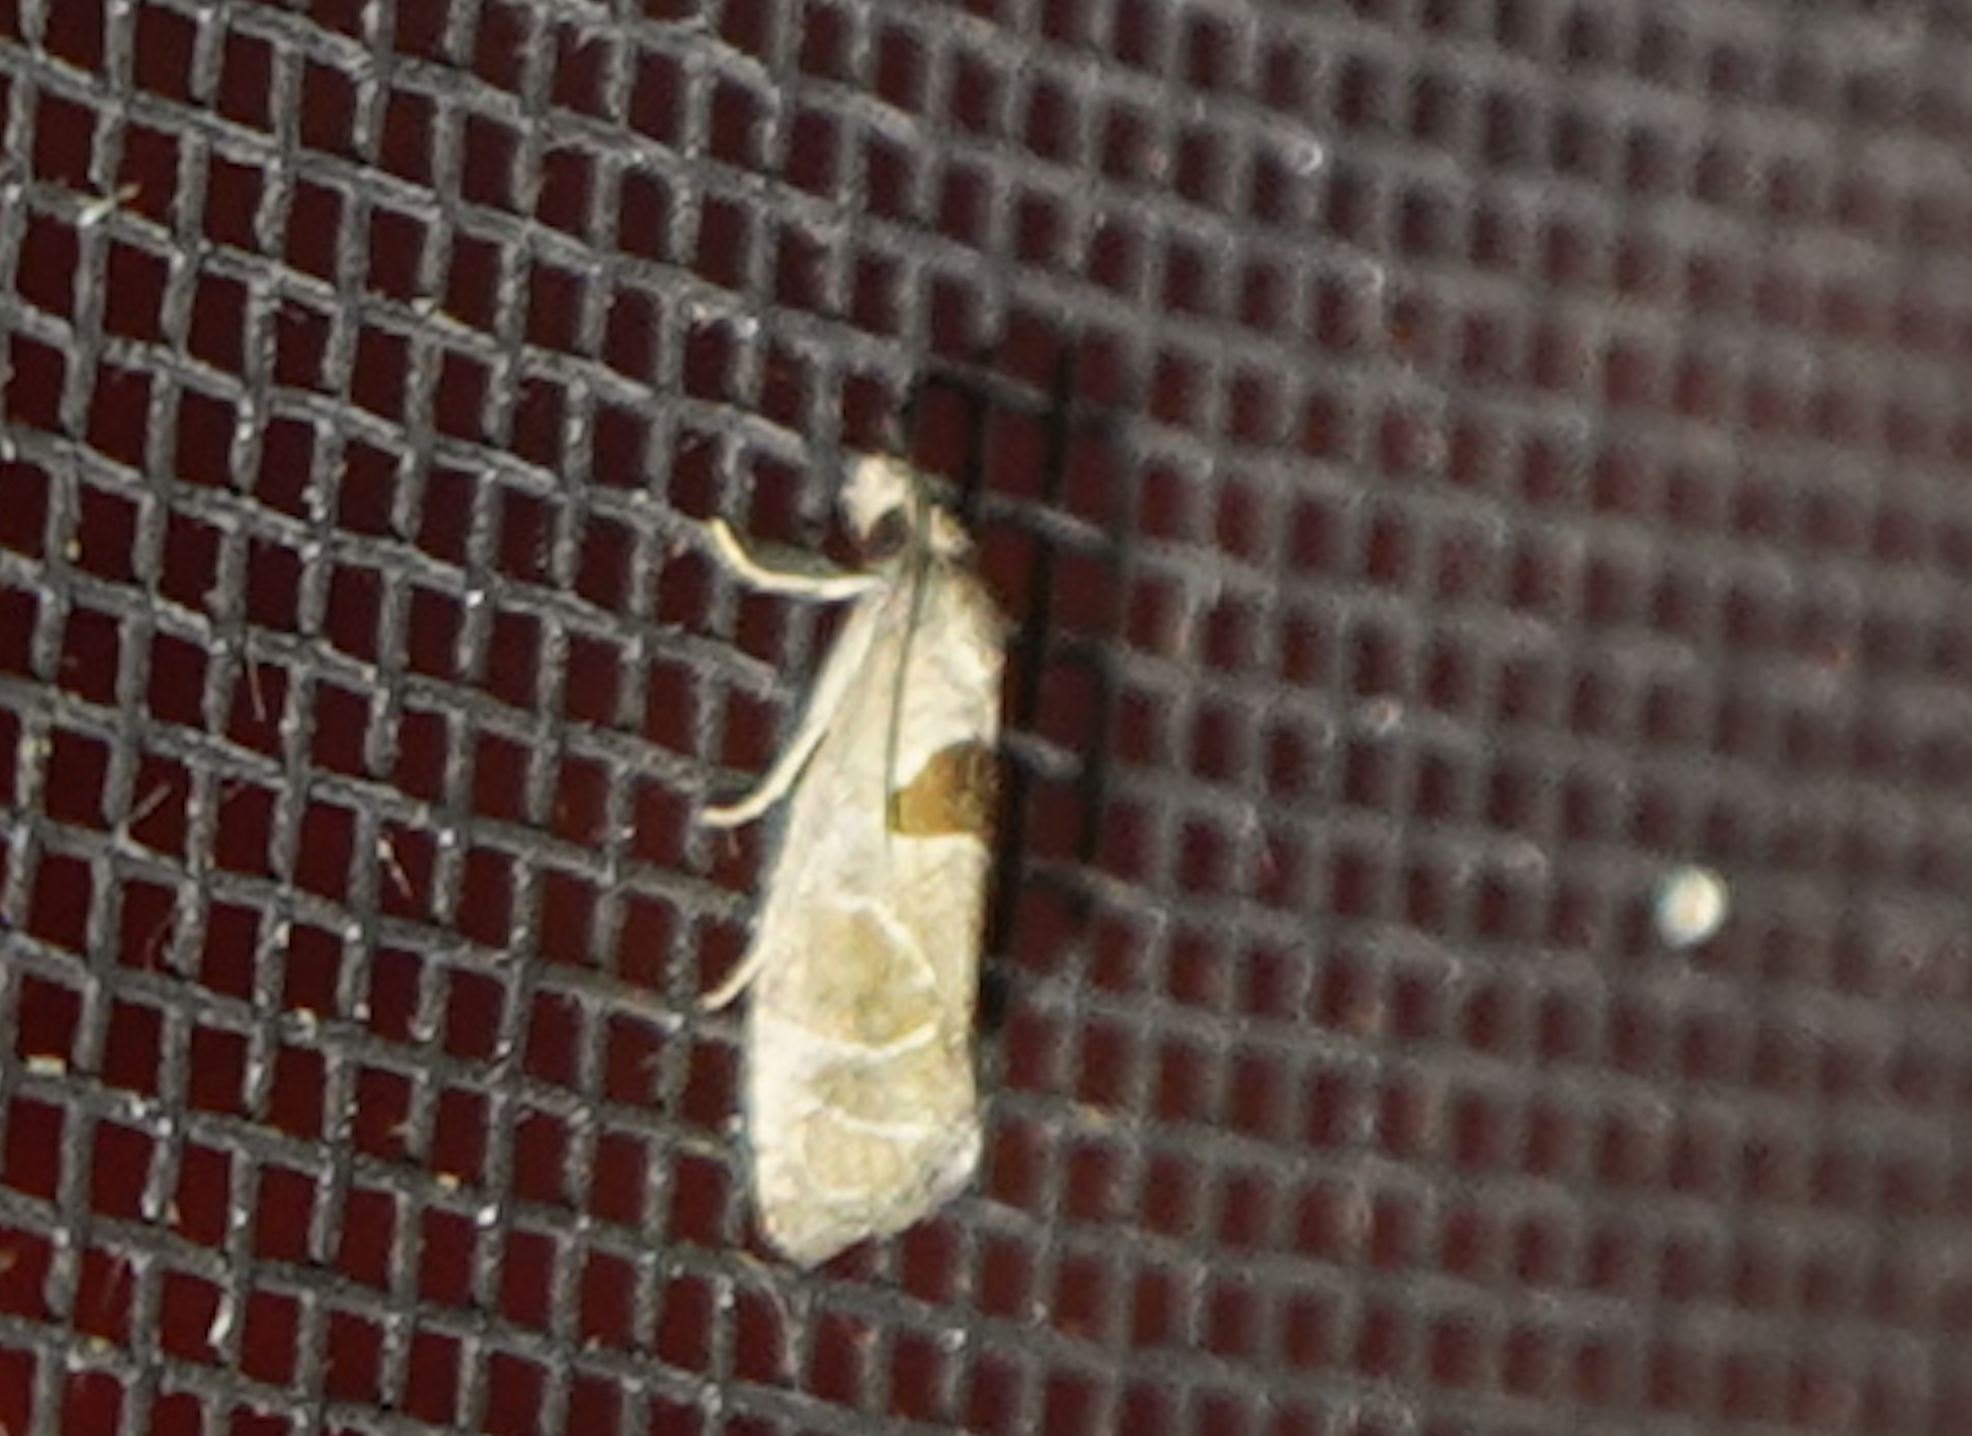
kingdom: Animalia
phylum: Arthropoda
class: Insecta
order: Lepidoptera
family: Tortricidae
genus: Pelochrista
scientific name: Pelochrista dorsisignatana
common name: Triangle-backed pelochrista moth
